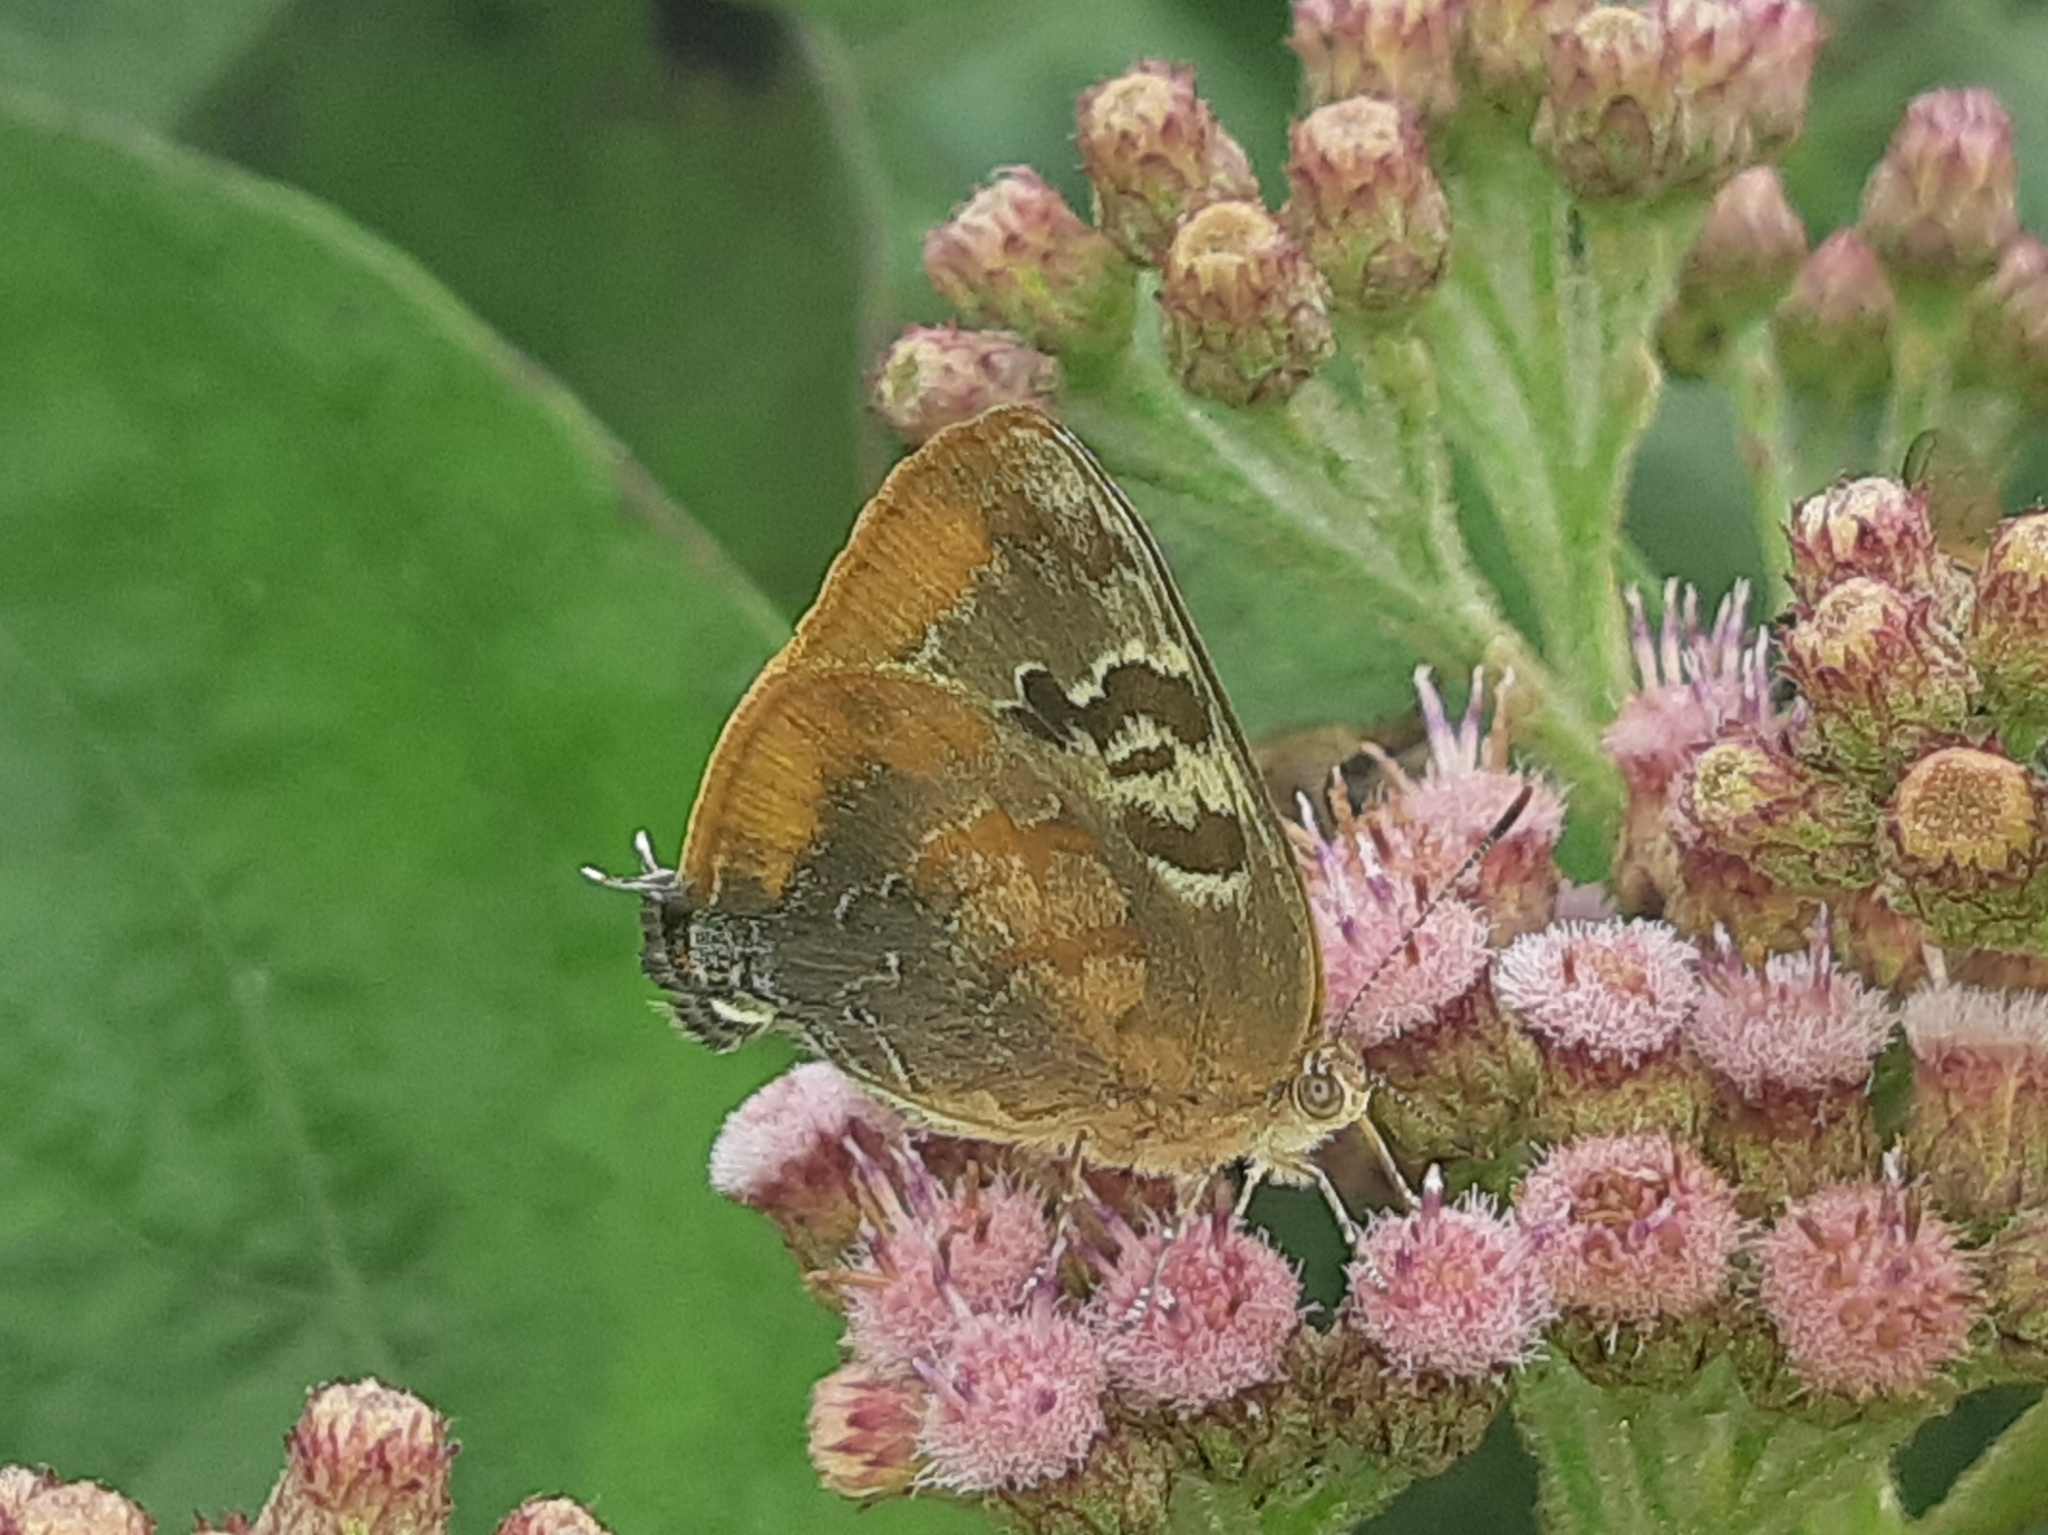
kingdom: Animalia
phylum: Arthropoda
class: Insecta
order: Lepidoptera
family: Lycaenidae
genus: Rekoa
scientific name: Rekoa palegon
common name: Gold-bordered hairstreak
